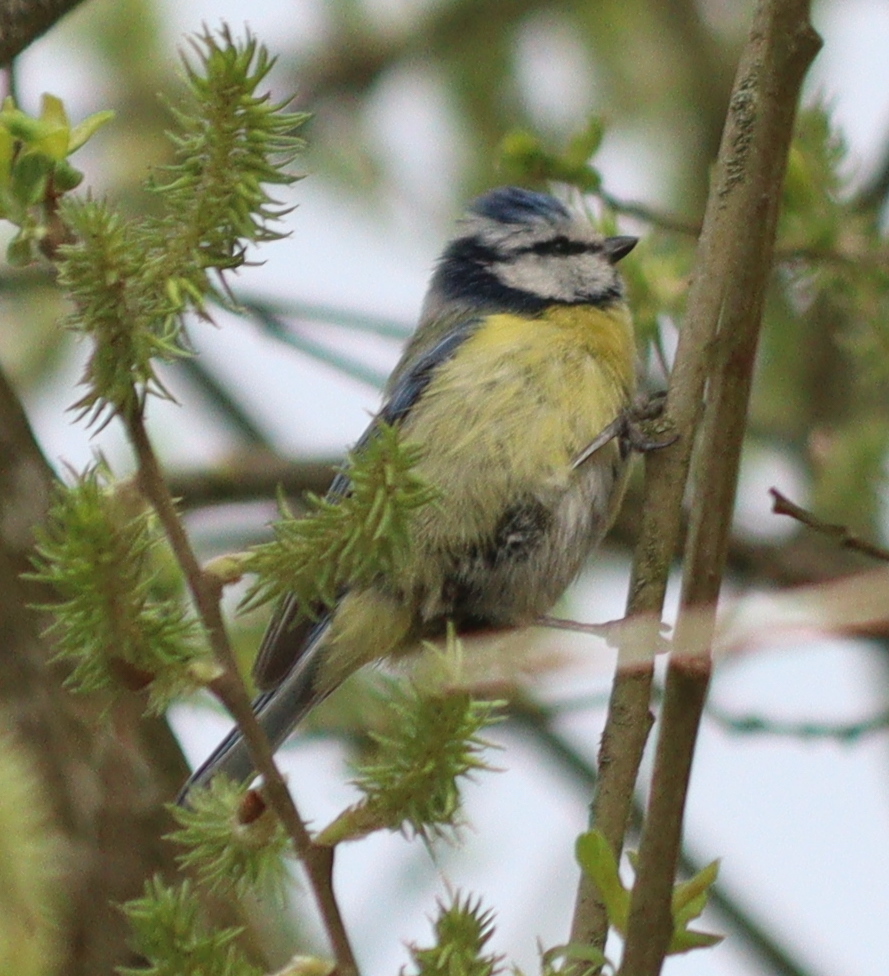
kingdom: Animalia
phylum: Chordata
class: Aves
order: Passeriformes
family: Paridae
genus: Cyanistes
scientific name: Cyanistes caeruleus
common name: Eurasian blue tit
